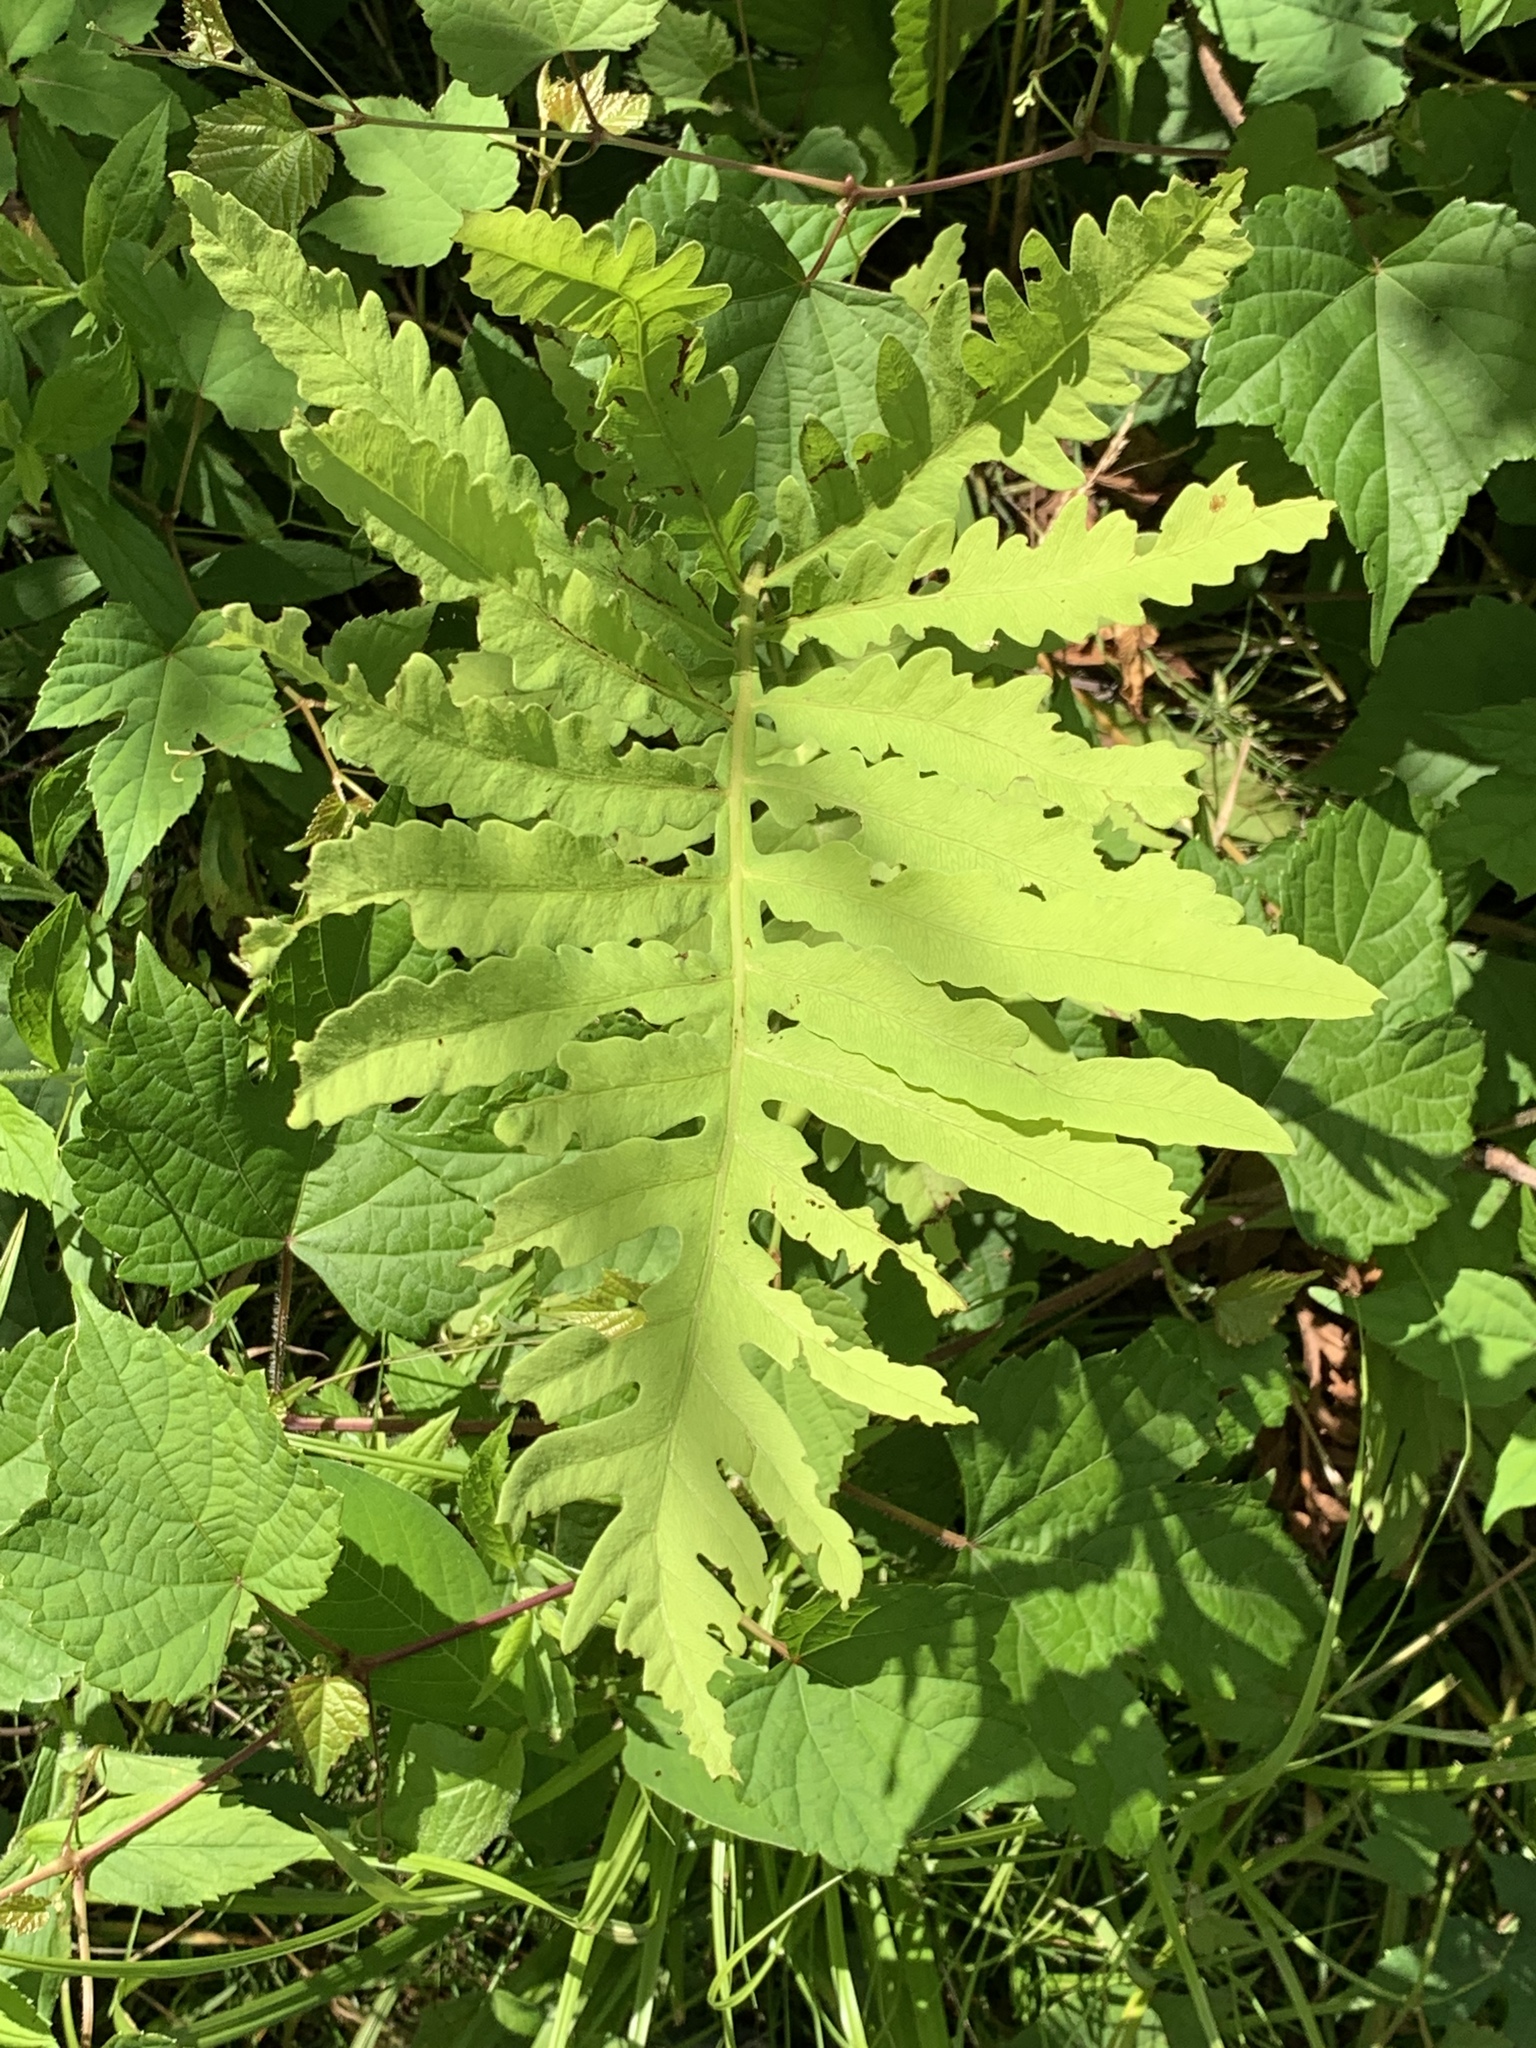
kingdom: Plantae
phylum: Tracheophyta
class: Polypodiopsida
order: Polypodiales
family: Onocleaceae
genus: Onoclea
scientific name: Onoclea sensibilis
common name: Sensitive fern
